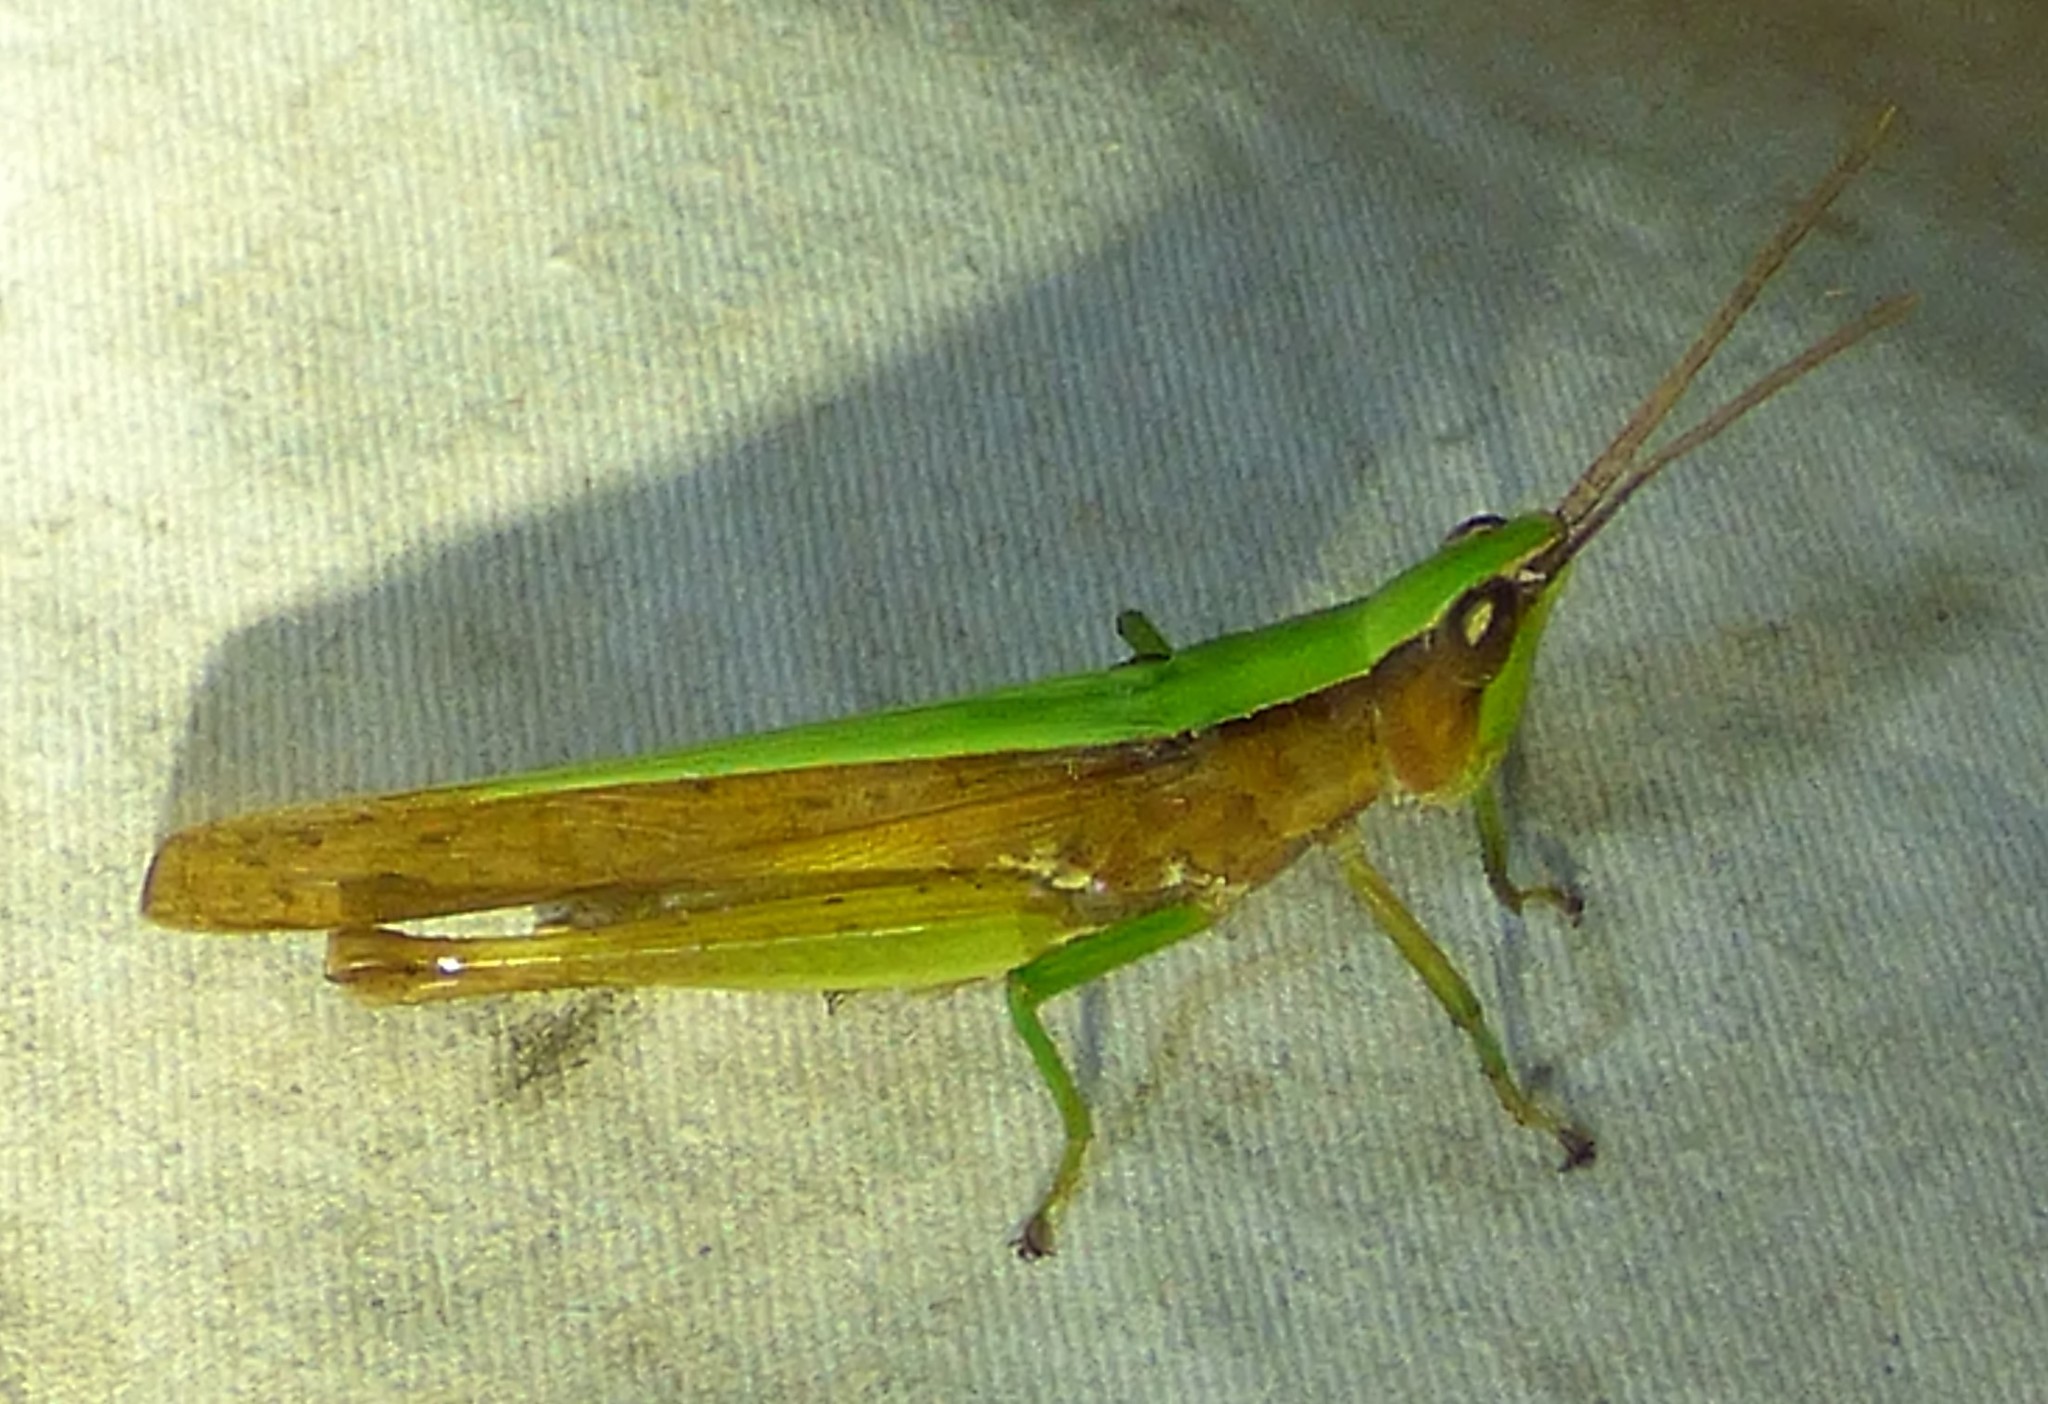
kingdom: Animalia
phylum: Arthropoda
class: Insecta
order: Orthoptera
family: Acrididae
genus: Metaleptea
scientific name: Metaleptea brevicornis
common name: Clipped-wing grasshopper
